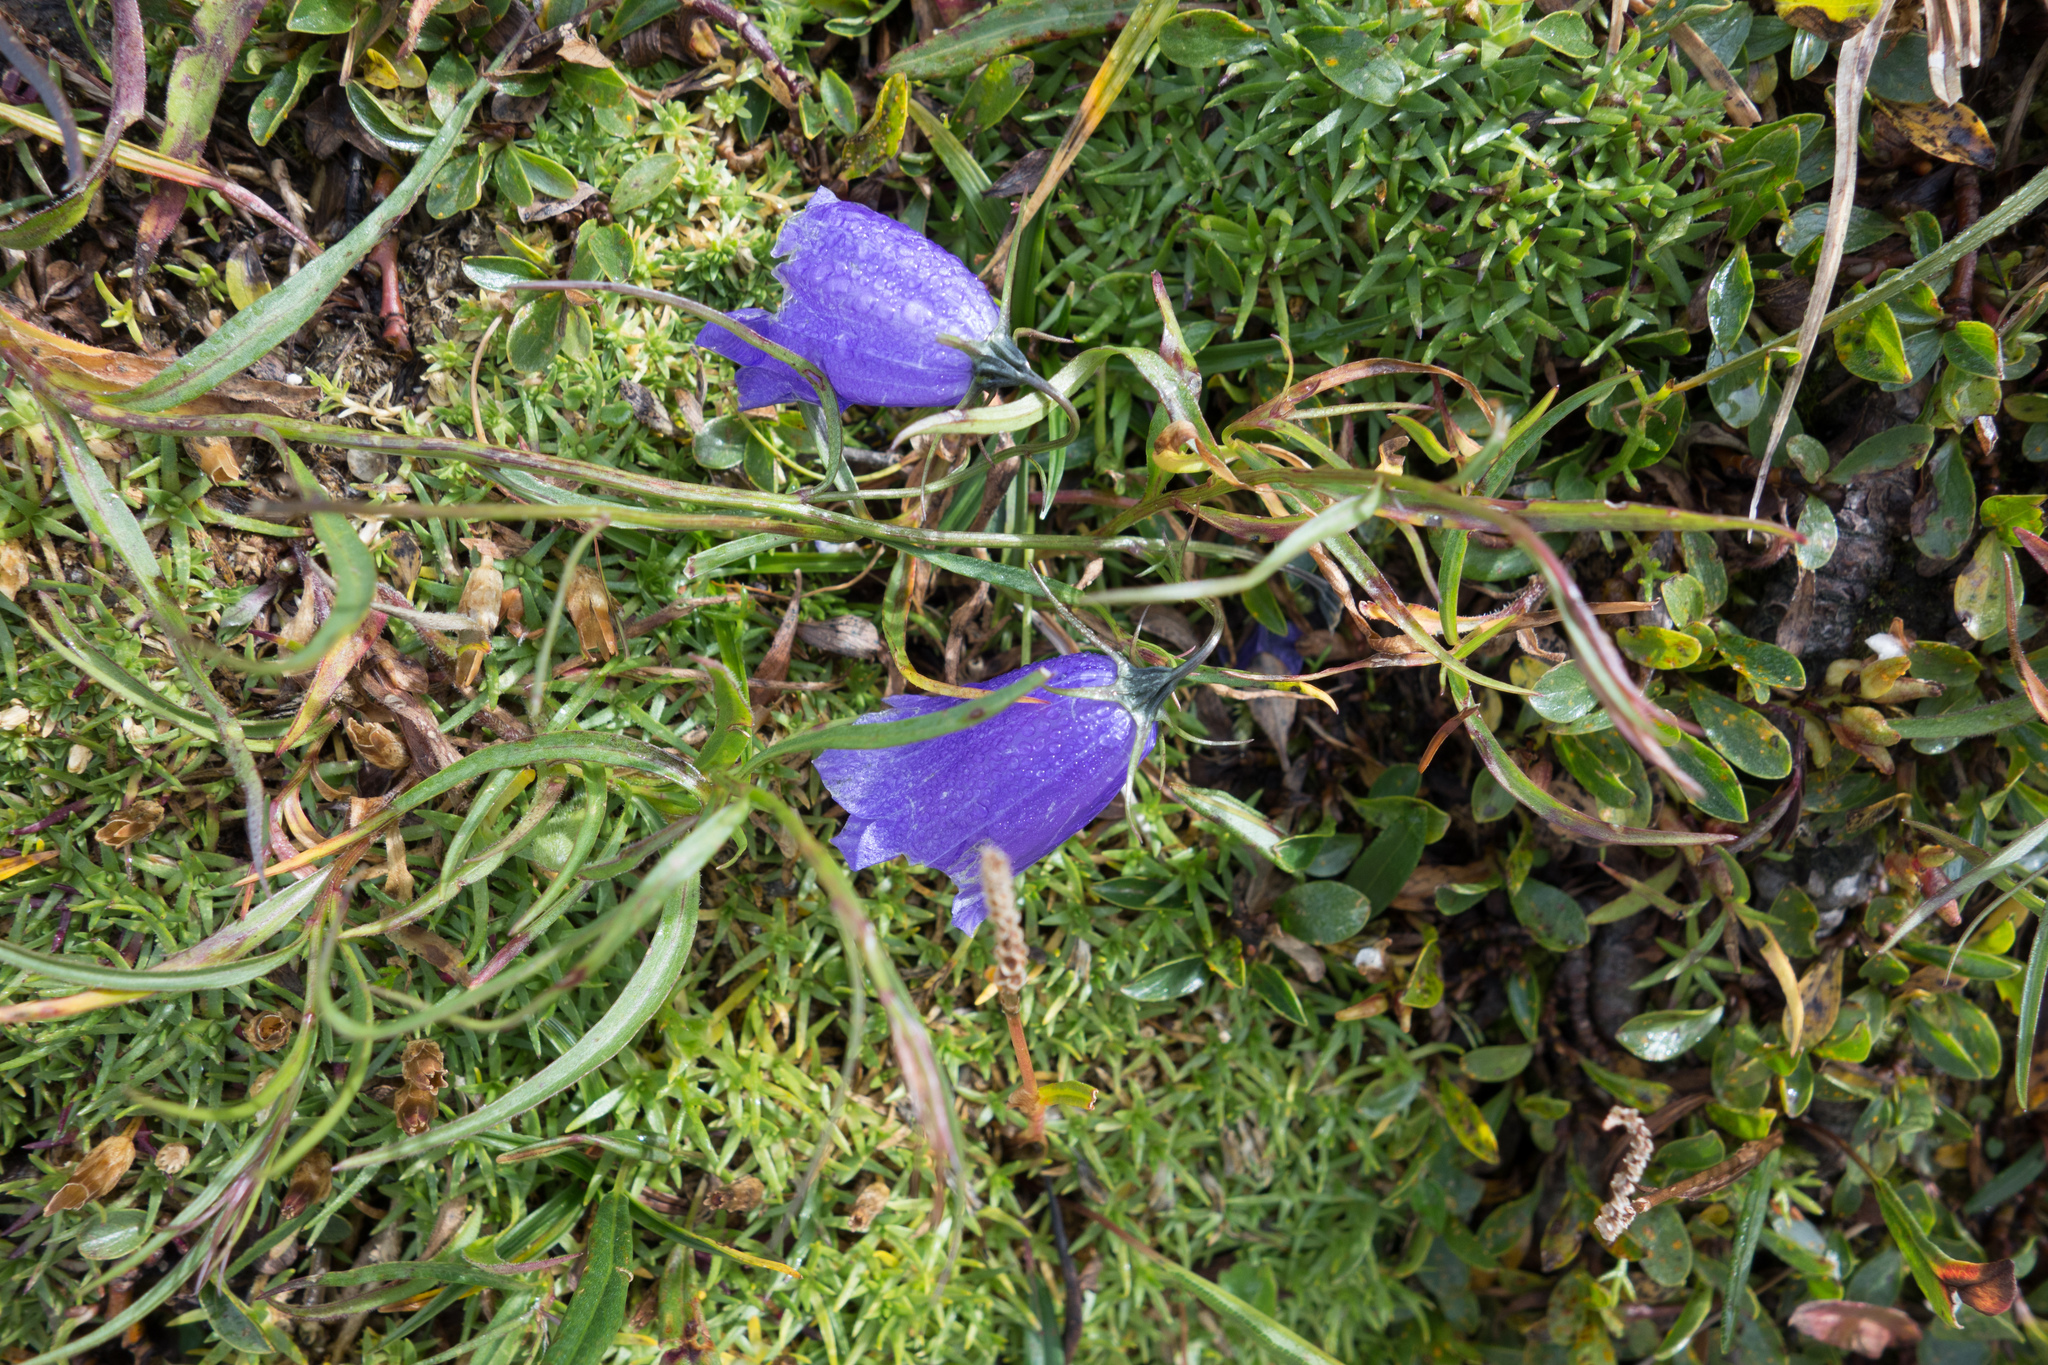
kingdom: Plantae
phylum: Tracheophyta
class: Magnoliopsida
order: Asterales
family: Campanulaceae
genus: Campanula
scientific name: Campanula scheuchzeri
